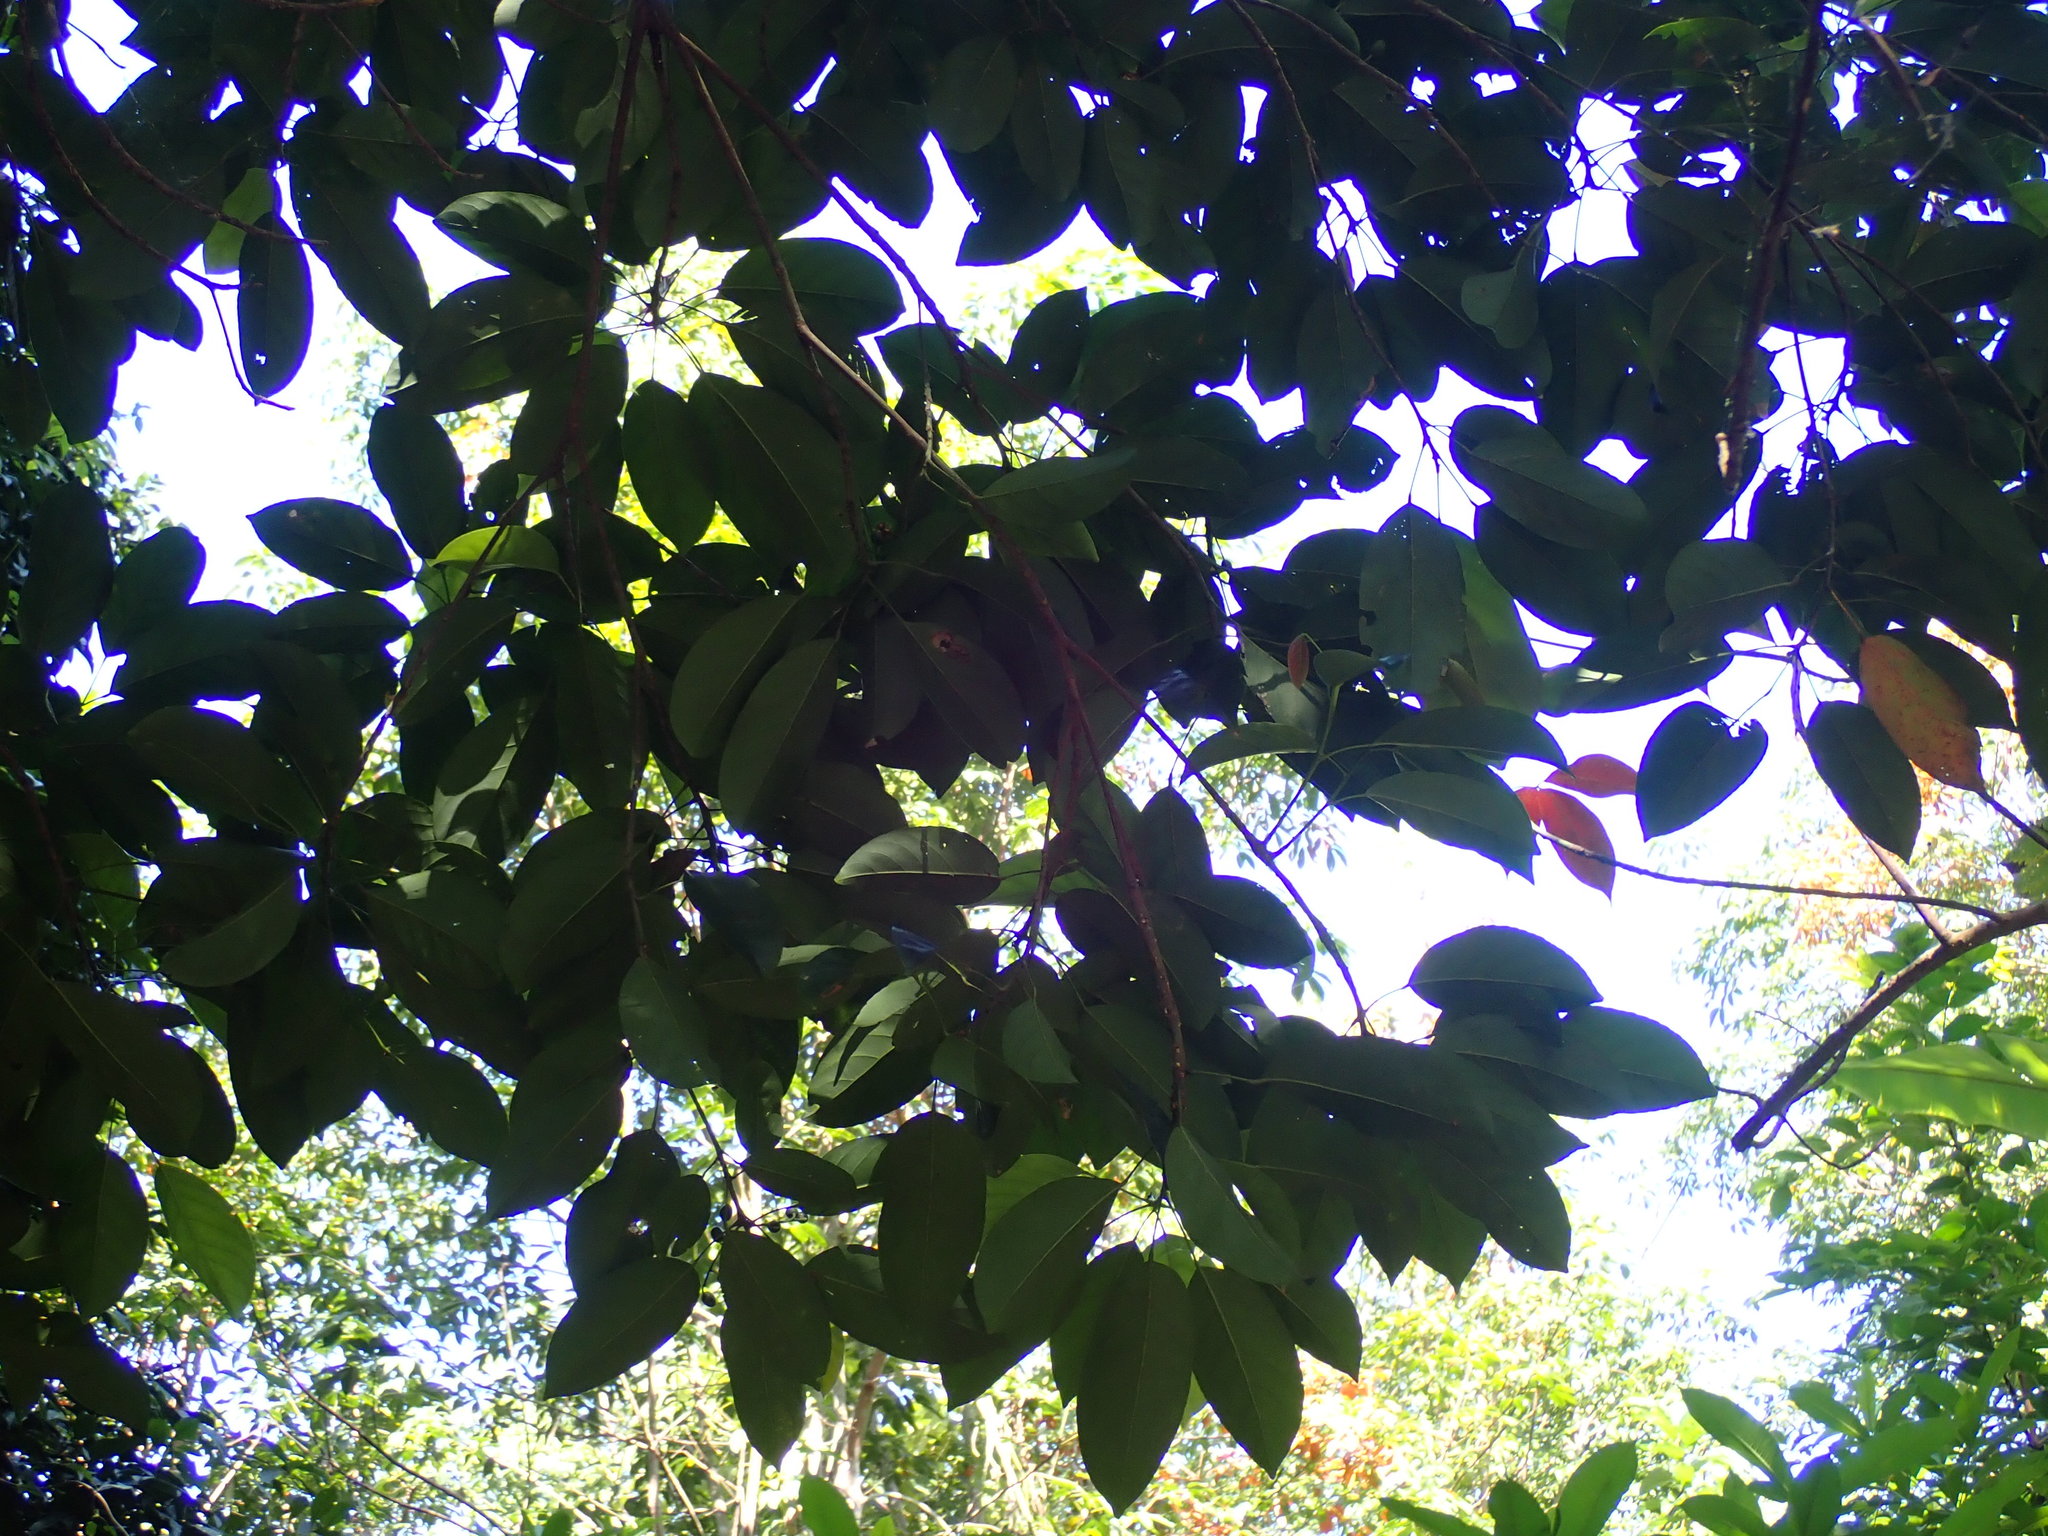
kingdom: Plantae
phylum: Tracheophyta
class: Magnoliopsida
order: Rosales
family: Moraceae
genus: Artocarpus
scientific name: Artocarpus heterophyllus
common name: Jackfruit
